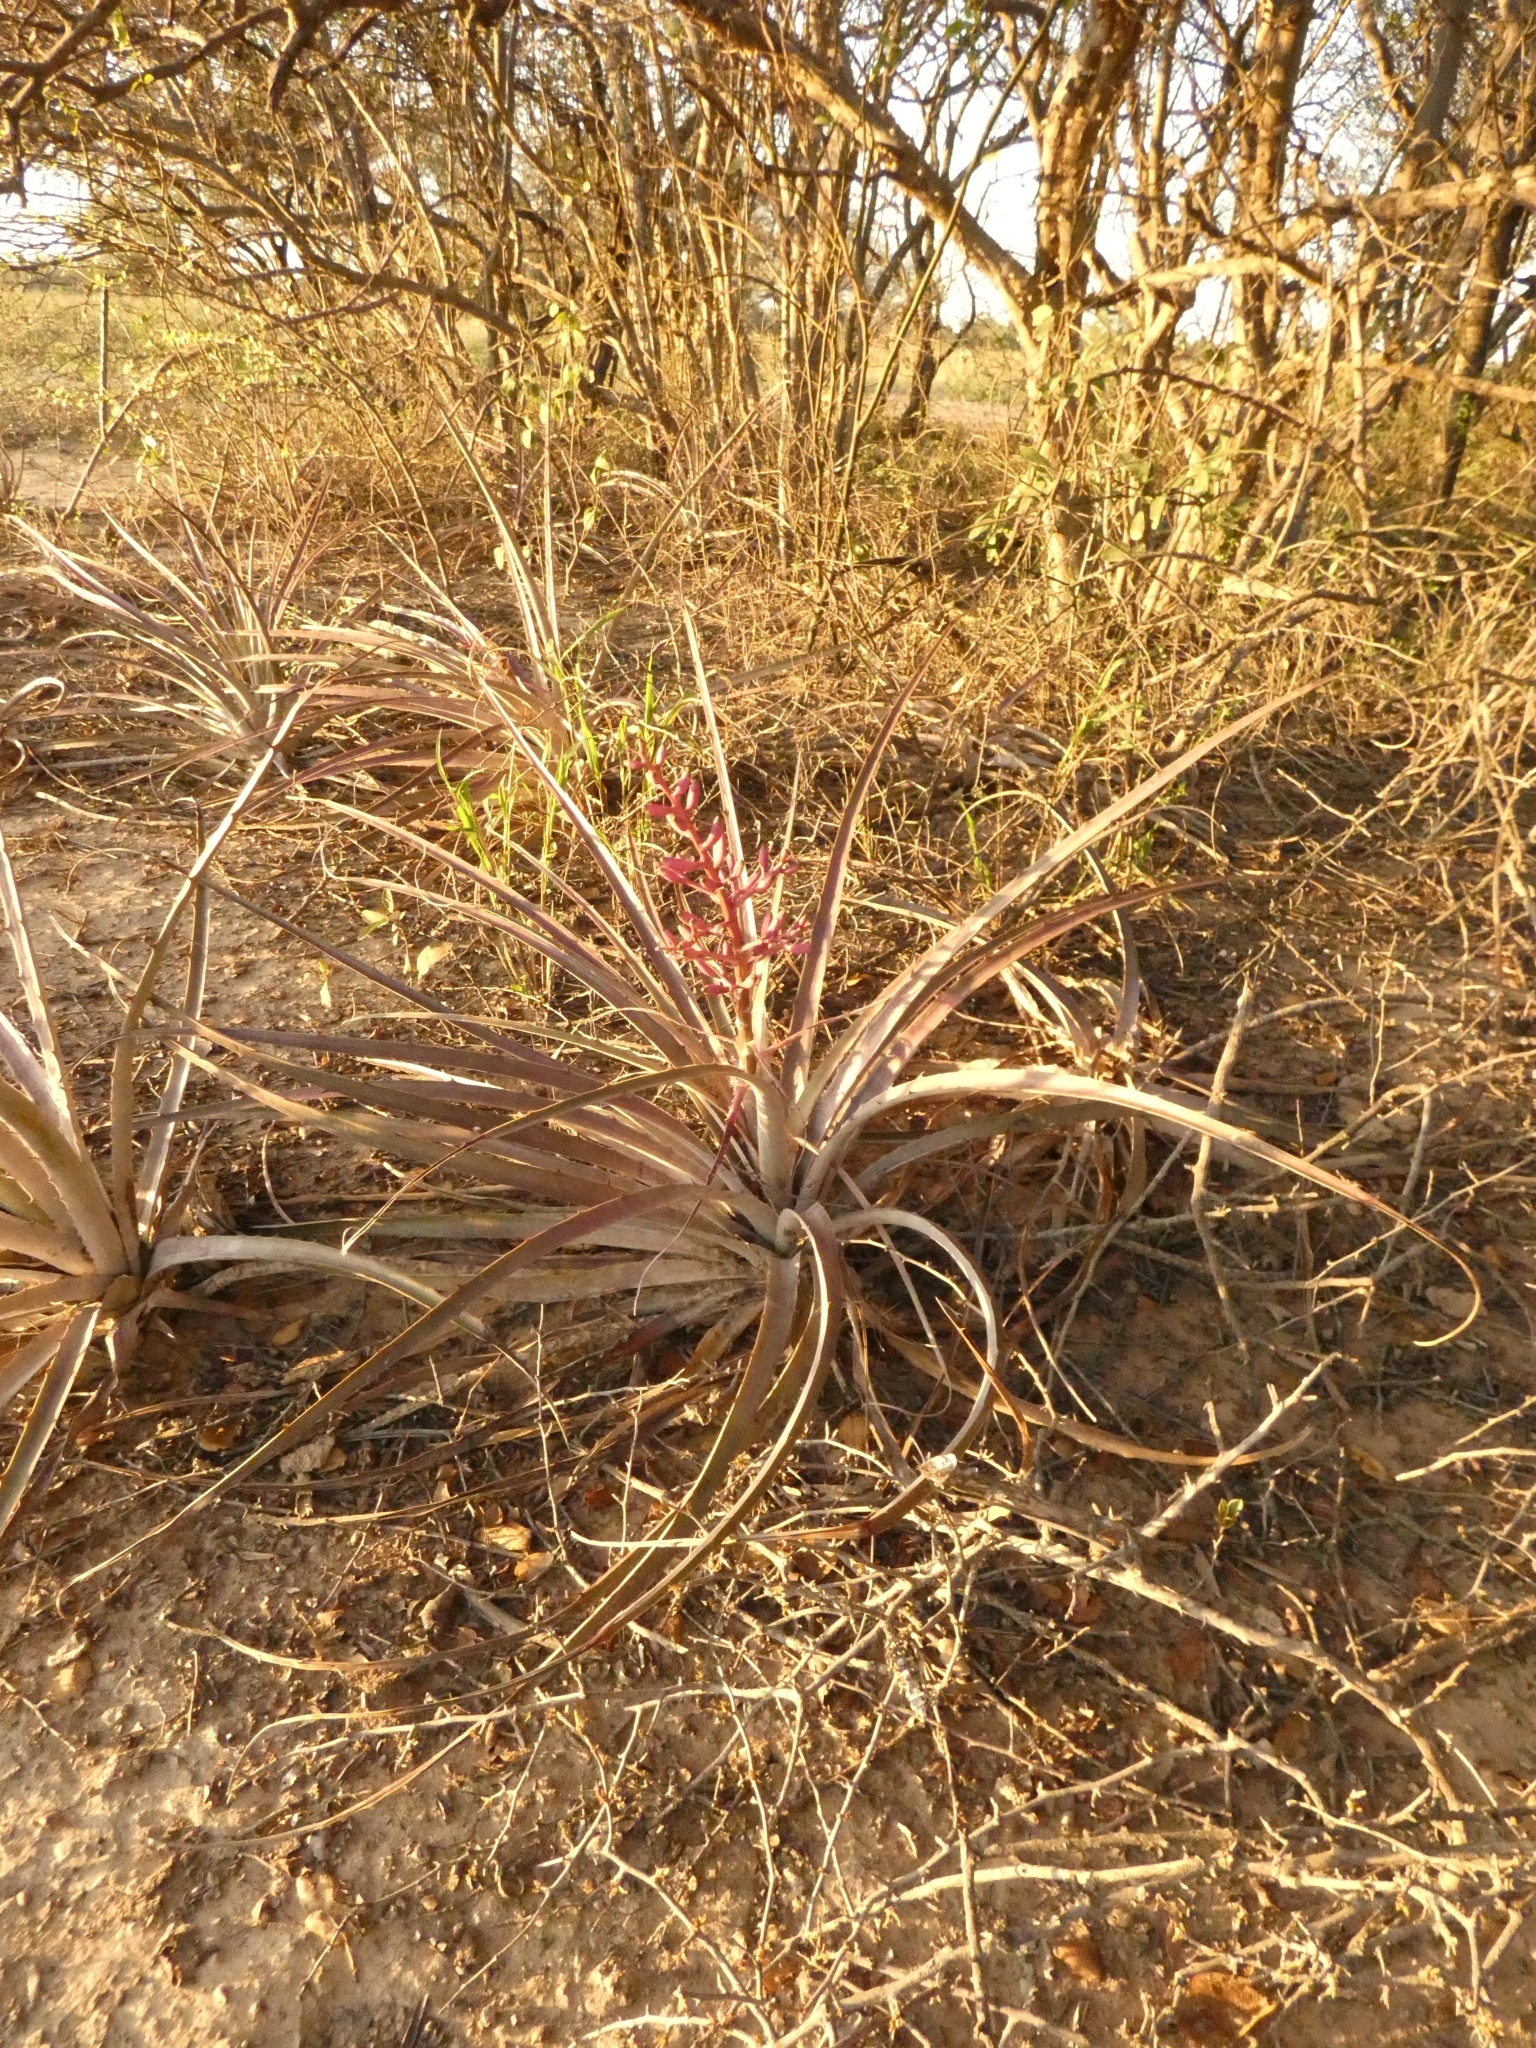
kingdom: Plantae
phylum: Tracheophyta
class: Liliopsida
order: Poales
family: Bromeliaceae
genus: Bromelia
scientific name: Bromelia hieronymi
